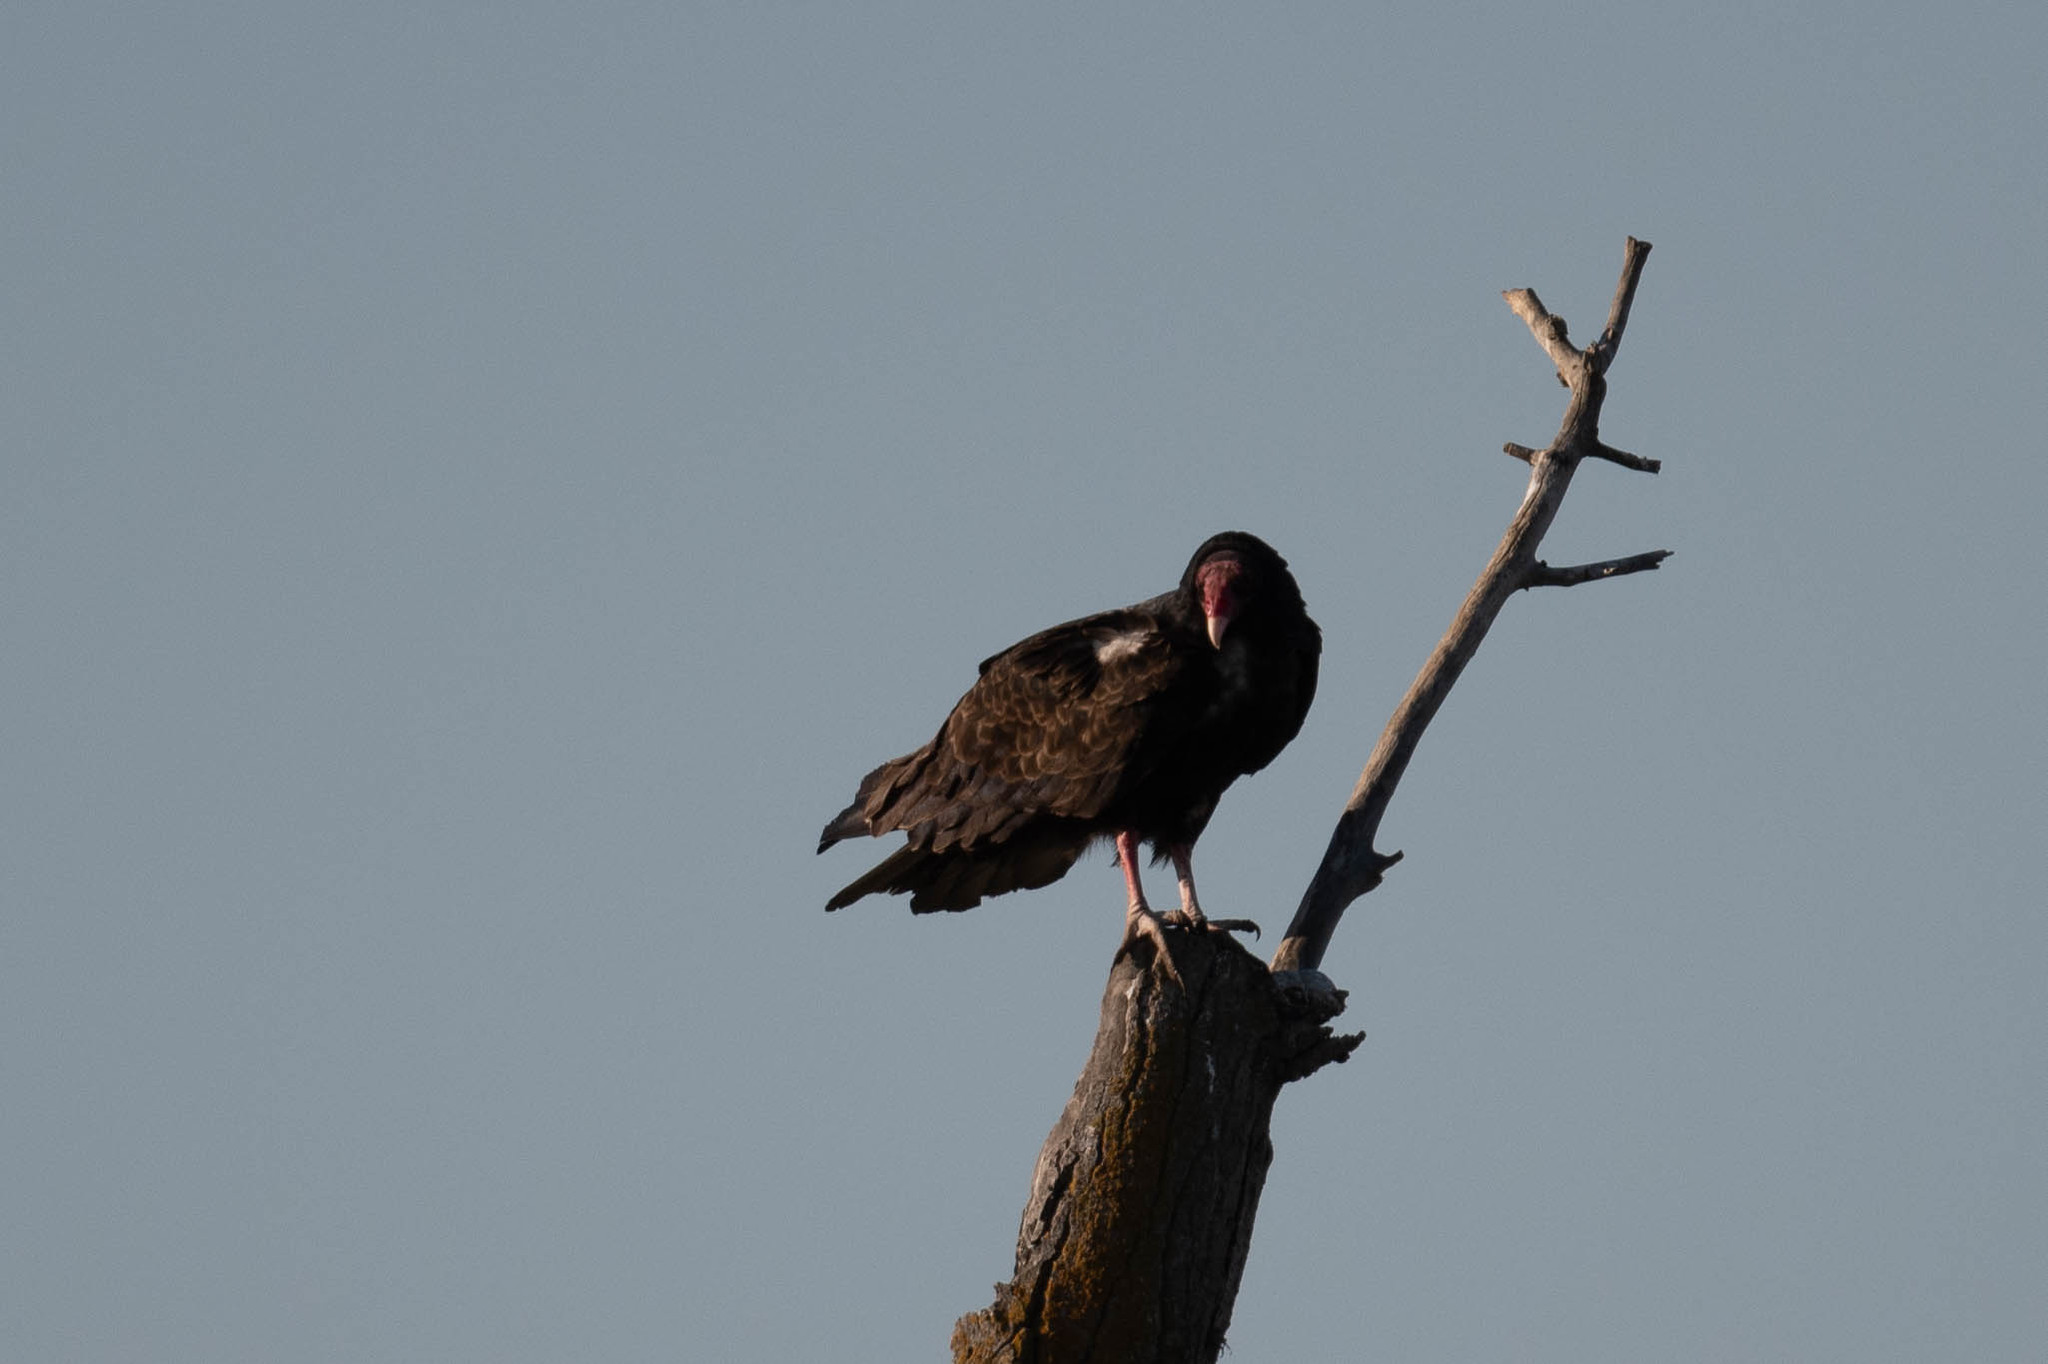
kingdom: Animalia
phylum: Chordata
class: Aves
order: Accipitriformes
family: Cathartidae
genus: Cathartes
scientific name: Cathartes aura
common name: Turkey vulture
